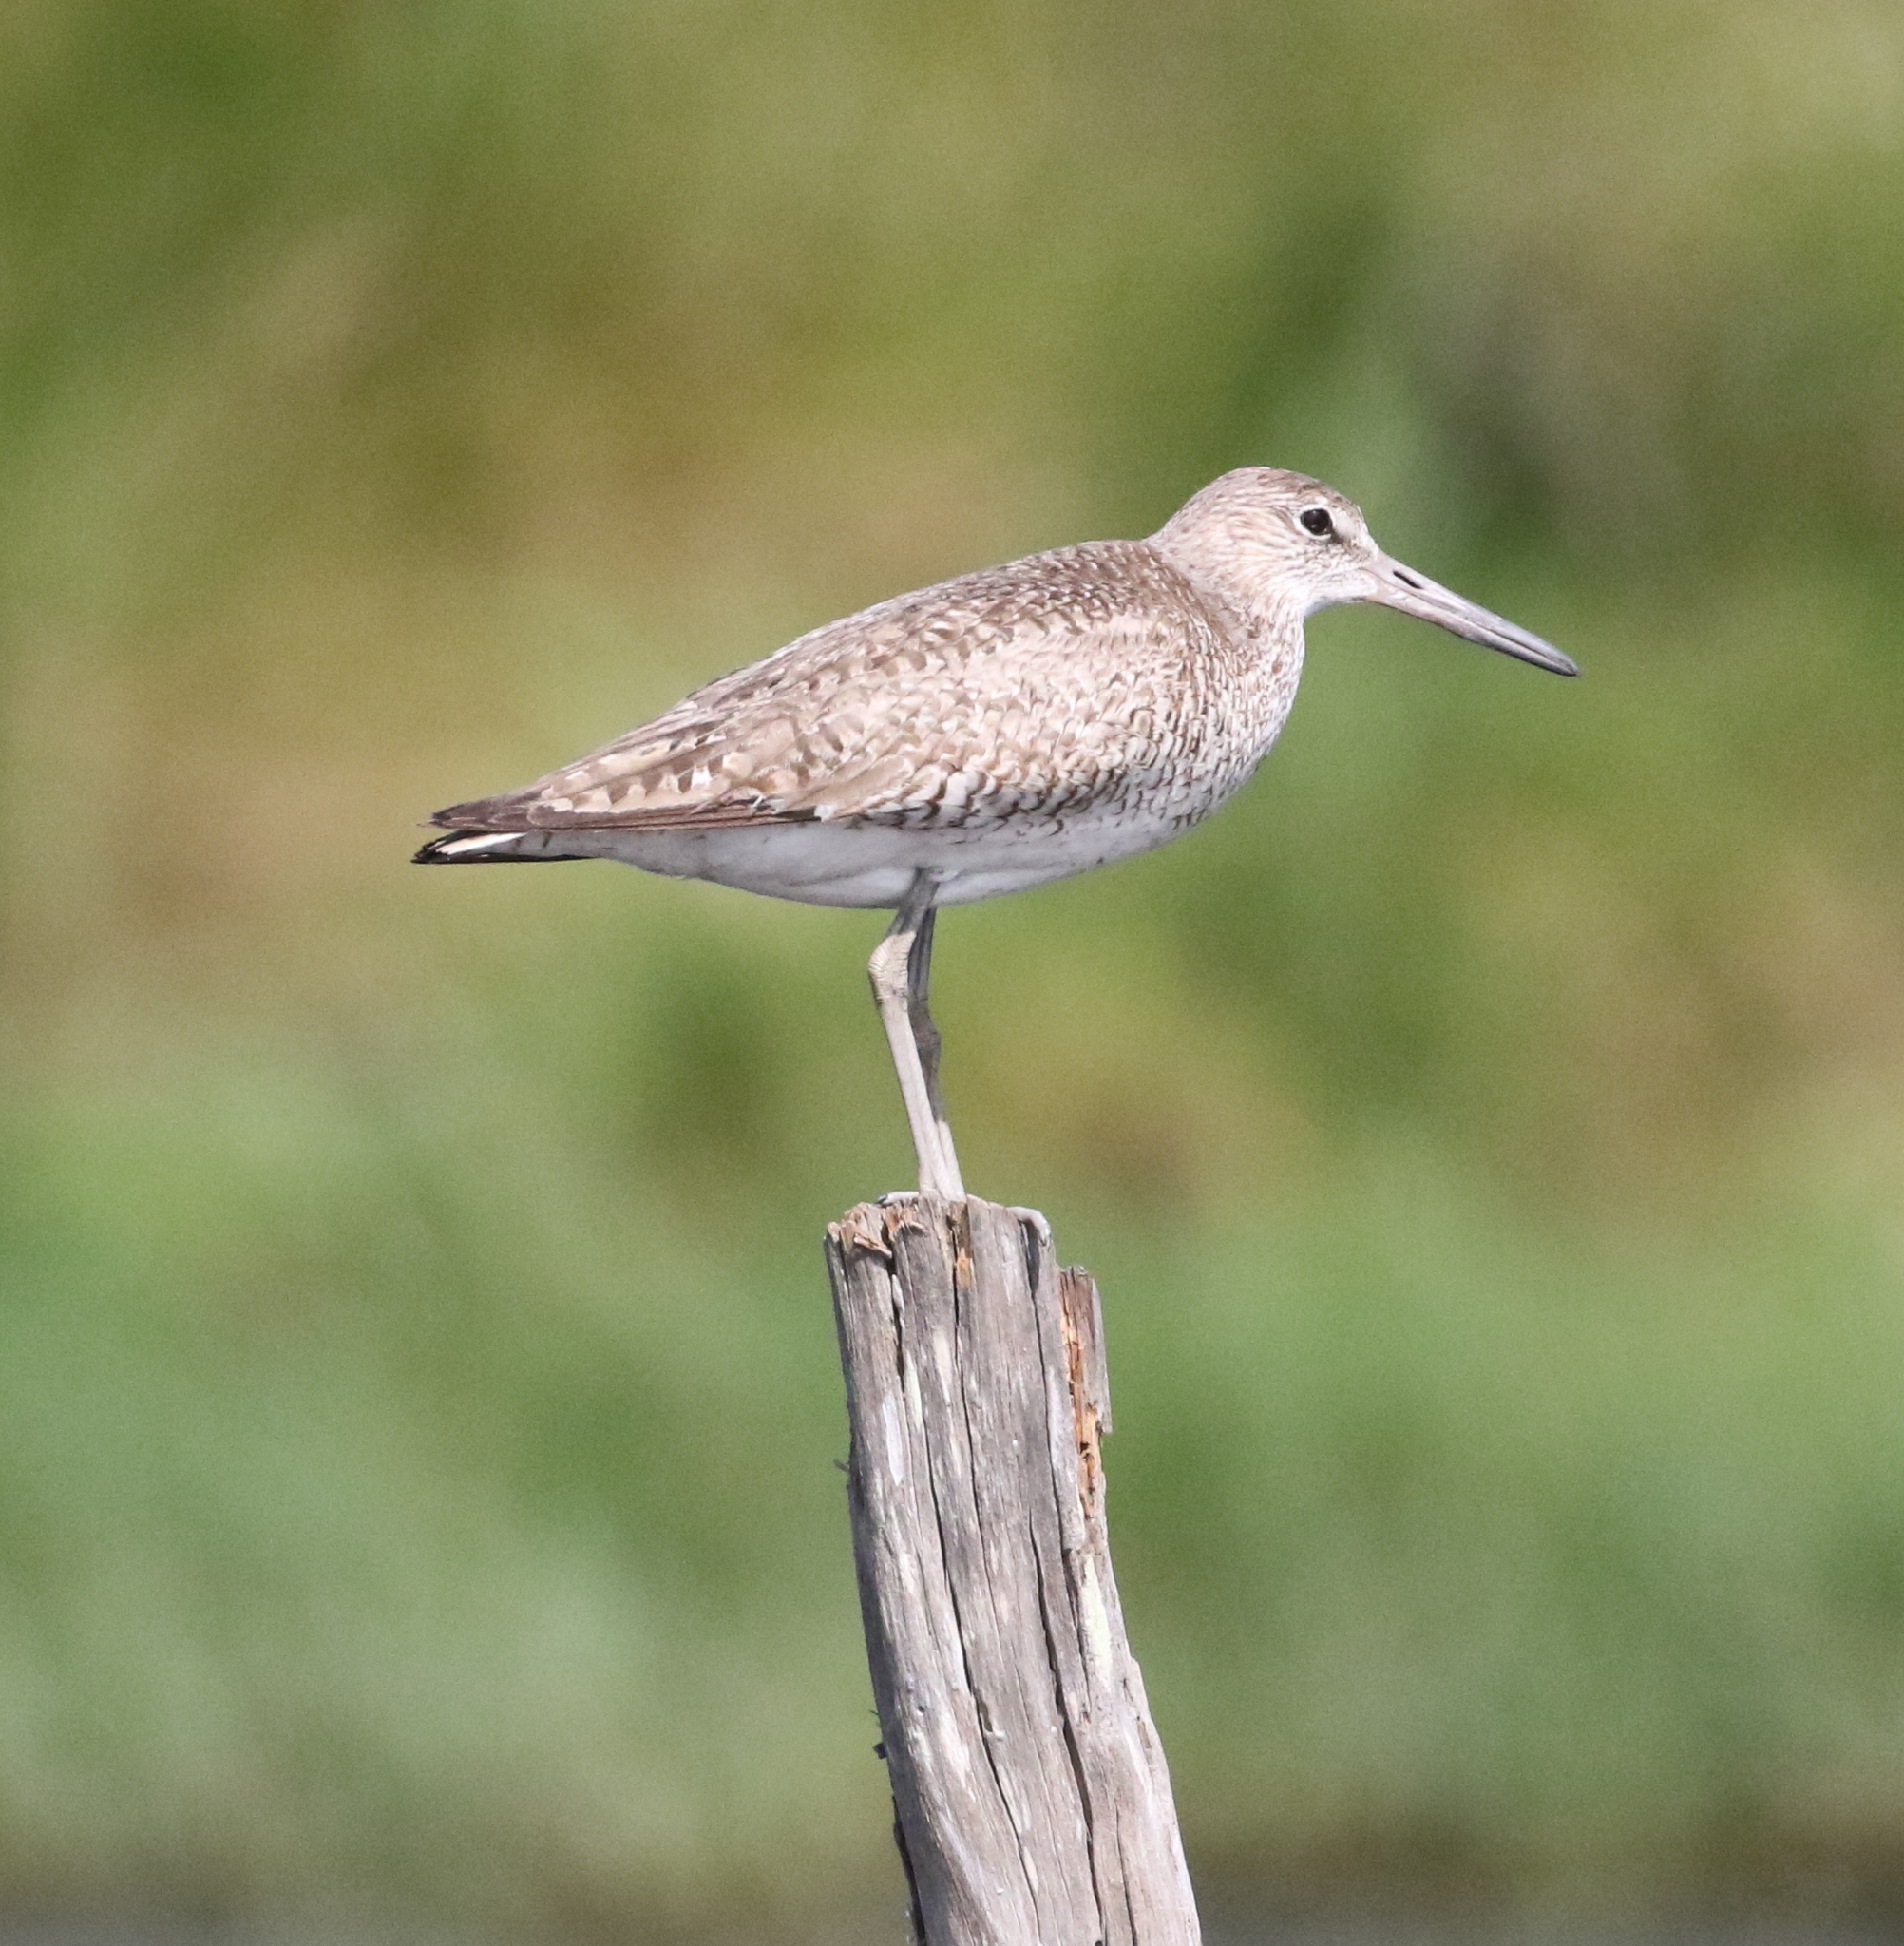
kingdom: Animalia
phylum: Chordata
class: Aves
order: Charadriiformes
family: Scolopacidae
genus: Tringa
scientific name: Tringa semipalmata
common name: Willet
